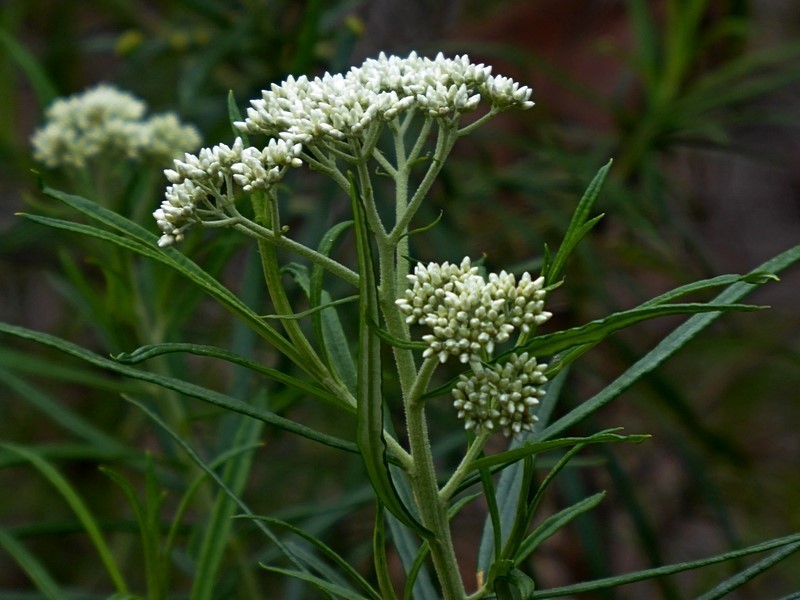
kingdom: Plantae
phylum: Tracheophyta
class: Magnoliopsida
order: Asterales
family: Asteraceae
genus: Cassinia
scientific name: Cassinia longifolia
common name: Longleaf-dogwood
